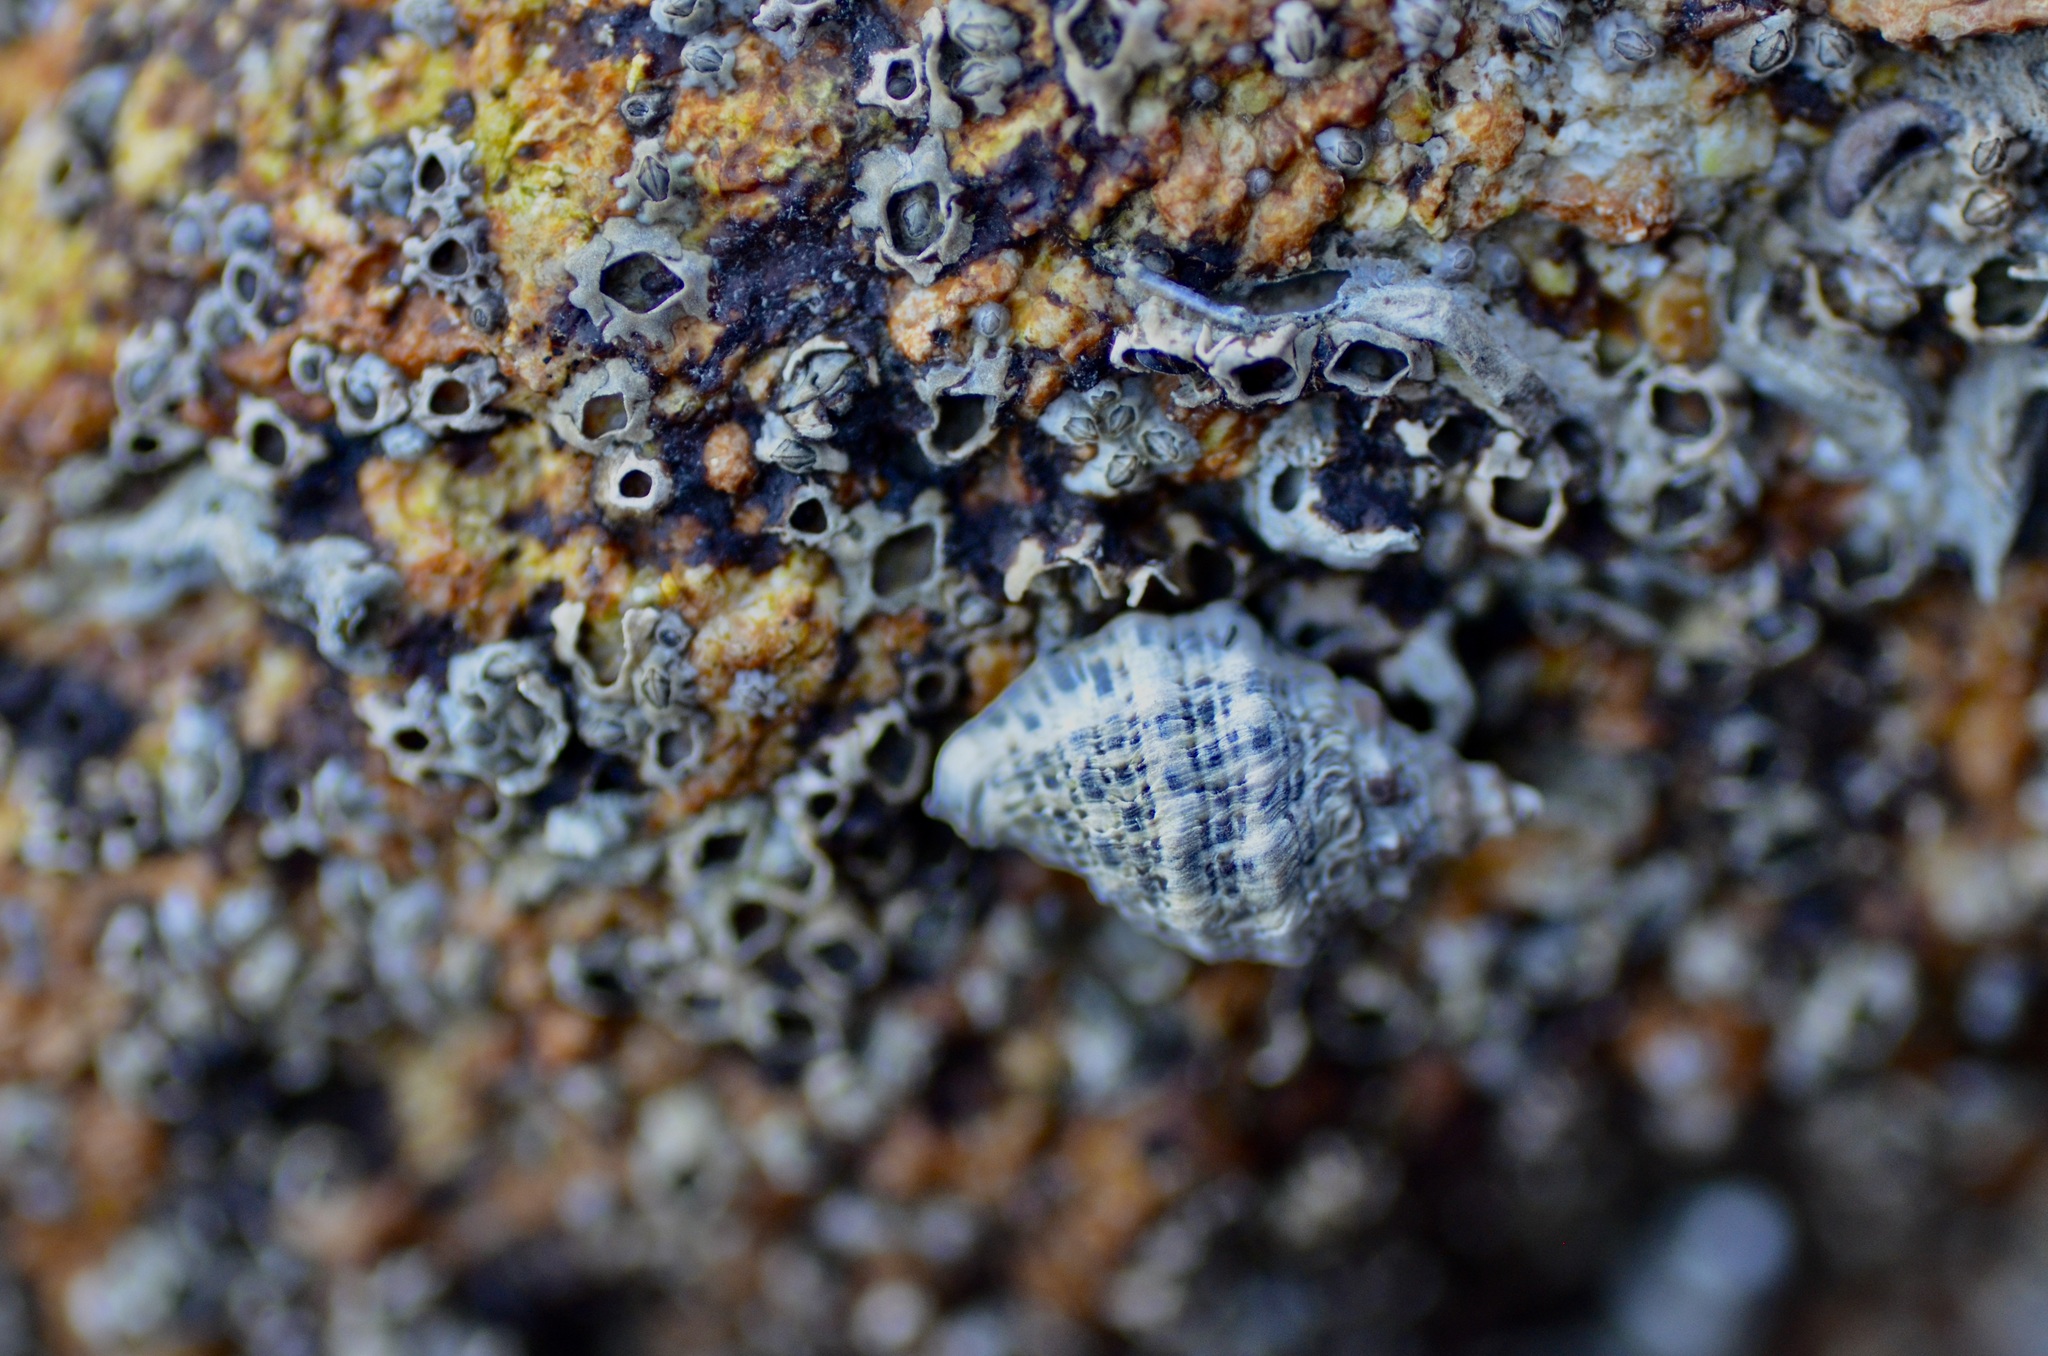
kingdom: Animalia
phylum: Mollusca
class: Gastropoda
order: Neogastropoda
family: Muricidae
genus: Haustrum
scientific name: Haustrum scobina
